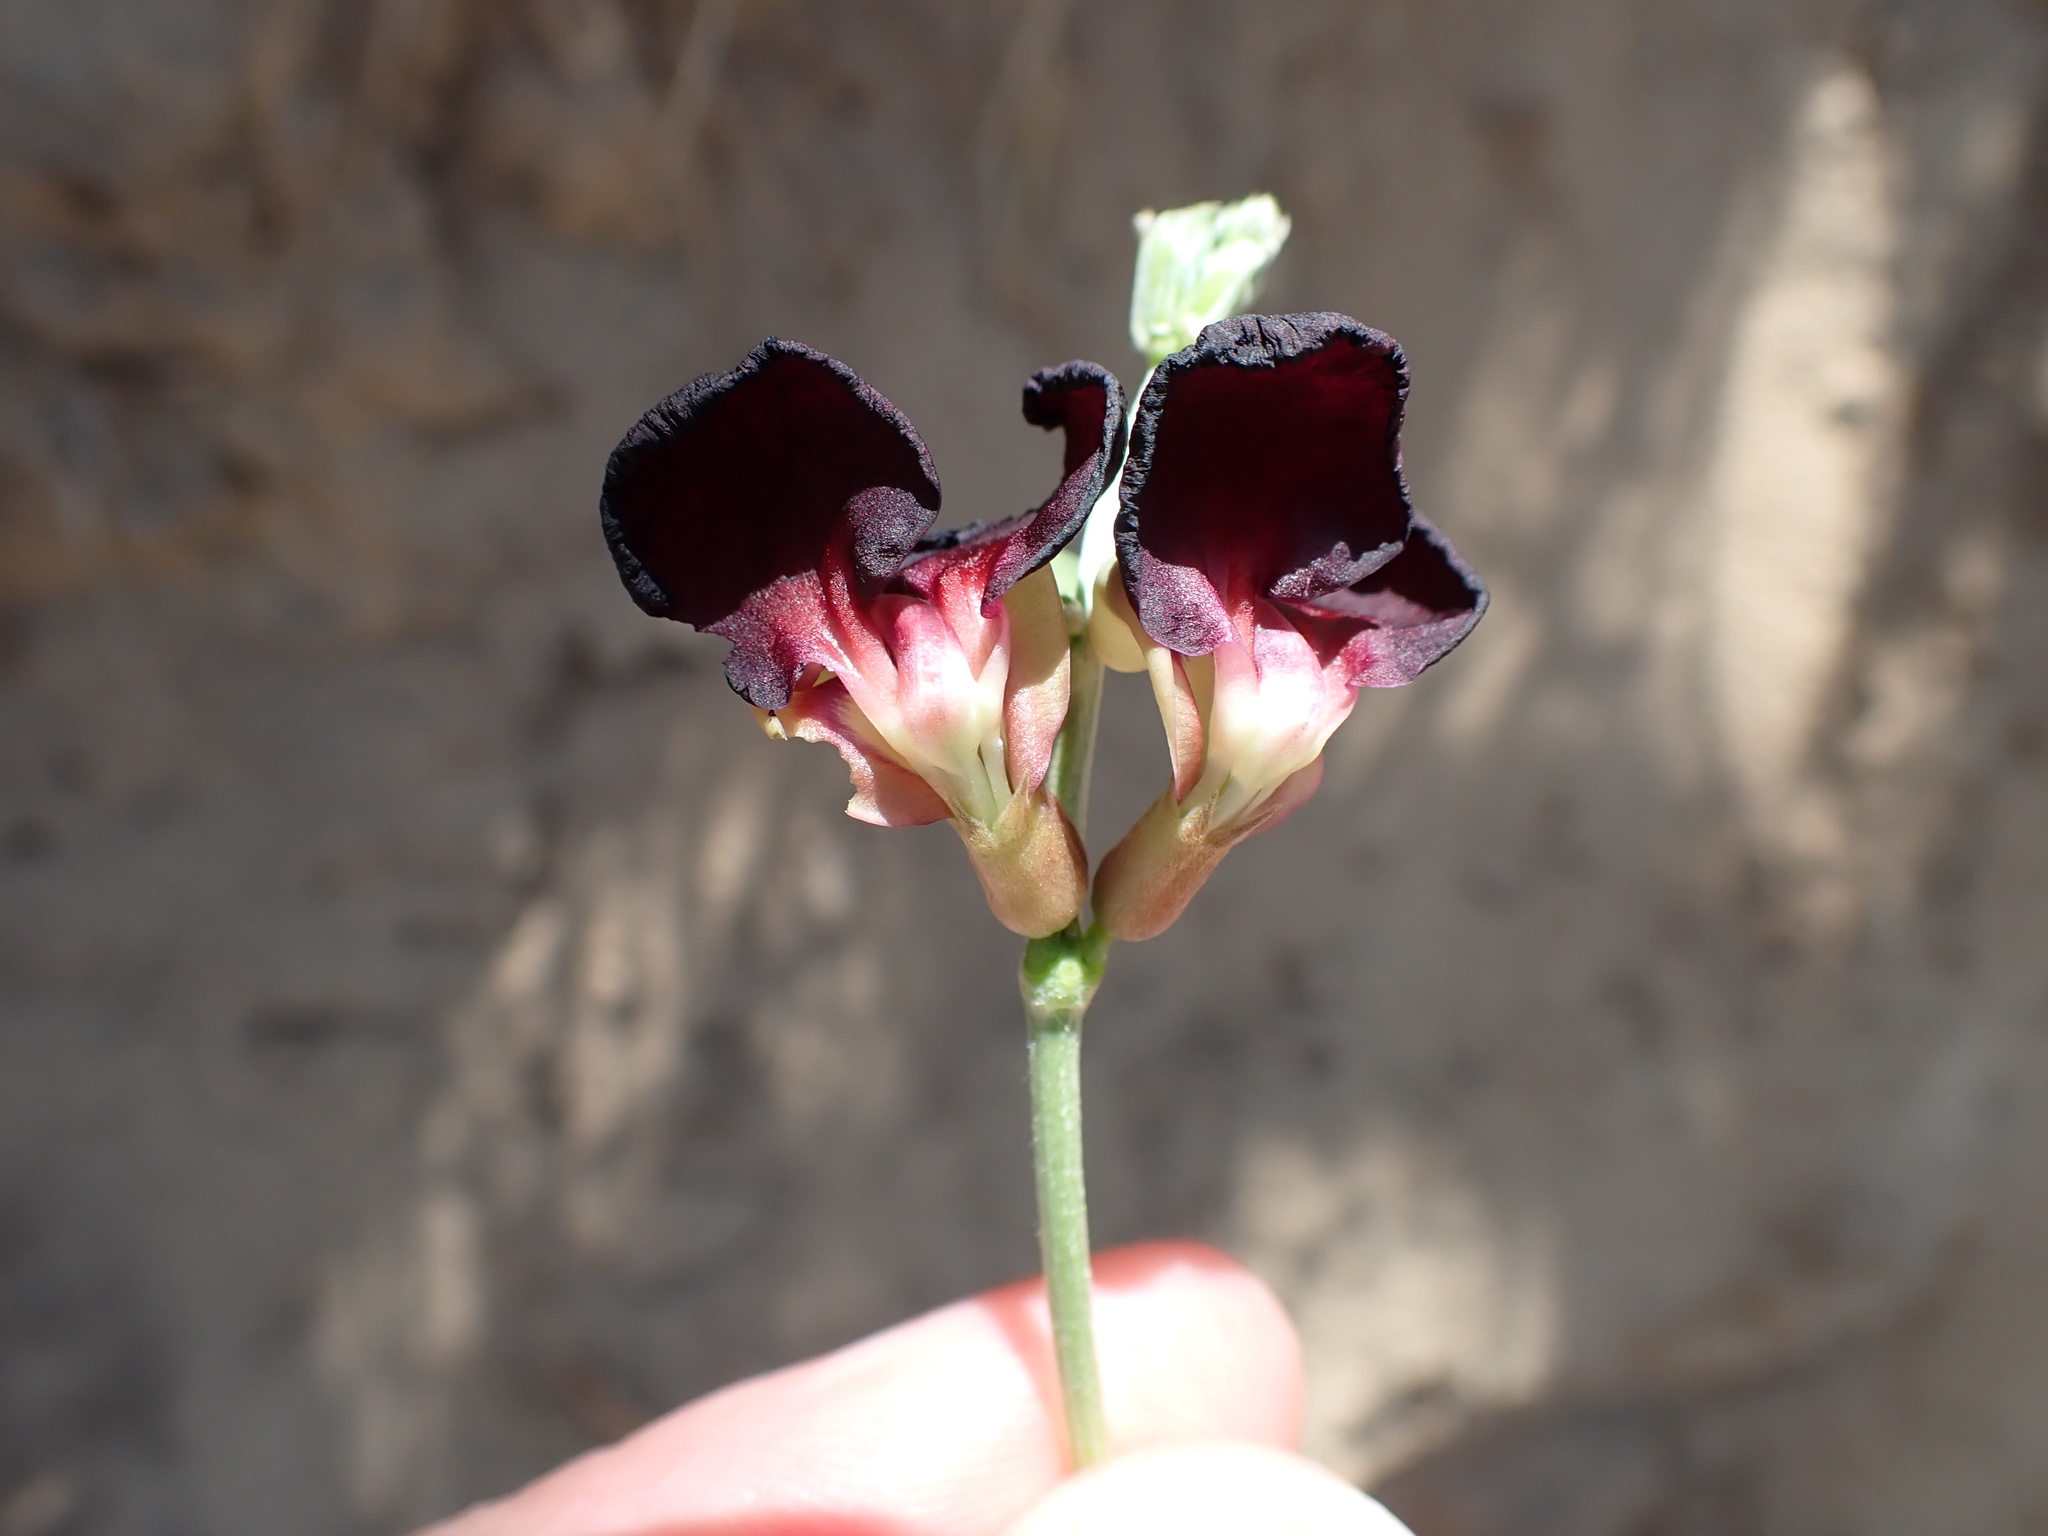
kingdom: Plantae
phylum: Tracheophyta
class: Magnoliopsida
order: Fabales
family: Fabaceae
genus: Macroptilium
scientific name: Macroptilium atropurpureum
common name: Purple bushbean
